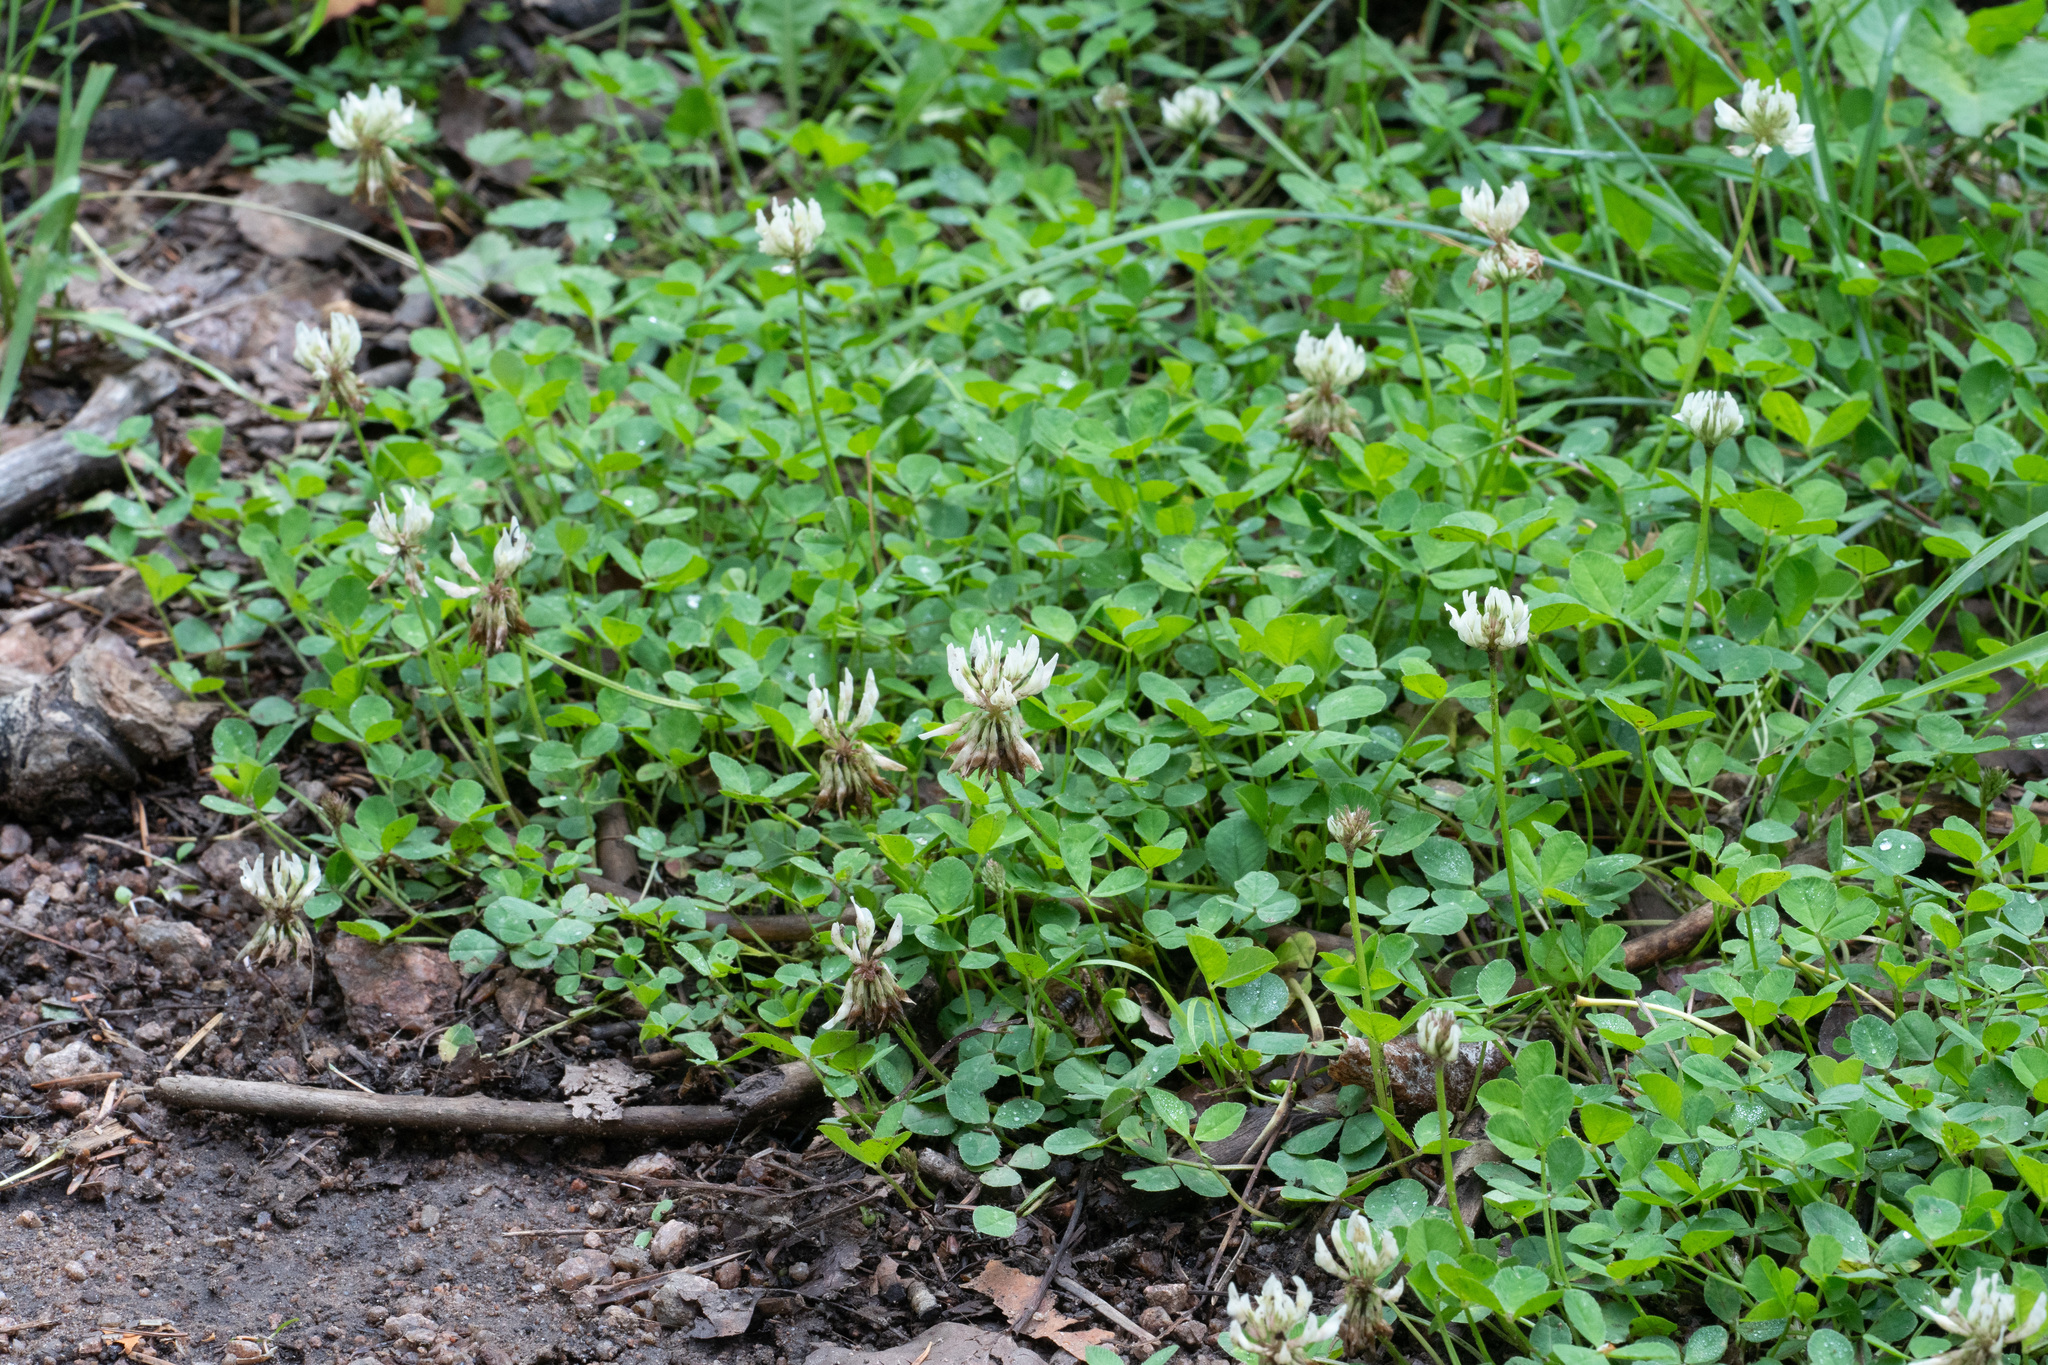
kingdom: Plantae
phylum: Tracheophyta
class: Magnoliopsida
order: Fabales
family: Fabaceae
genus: Trifolium
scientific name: Trifolium repens
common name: White clover
